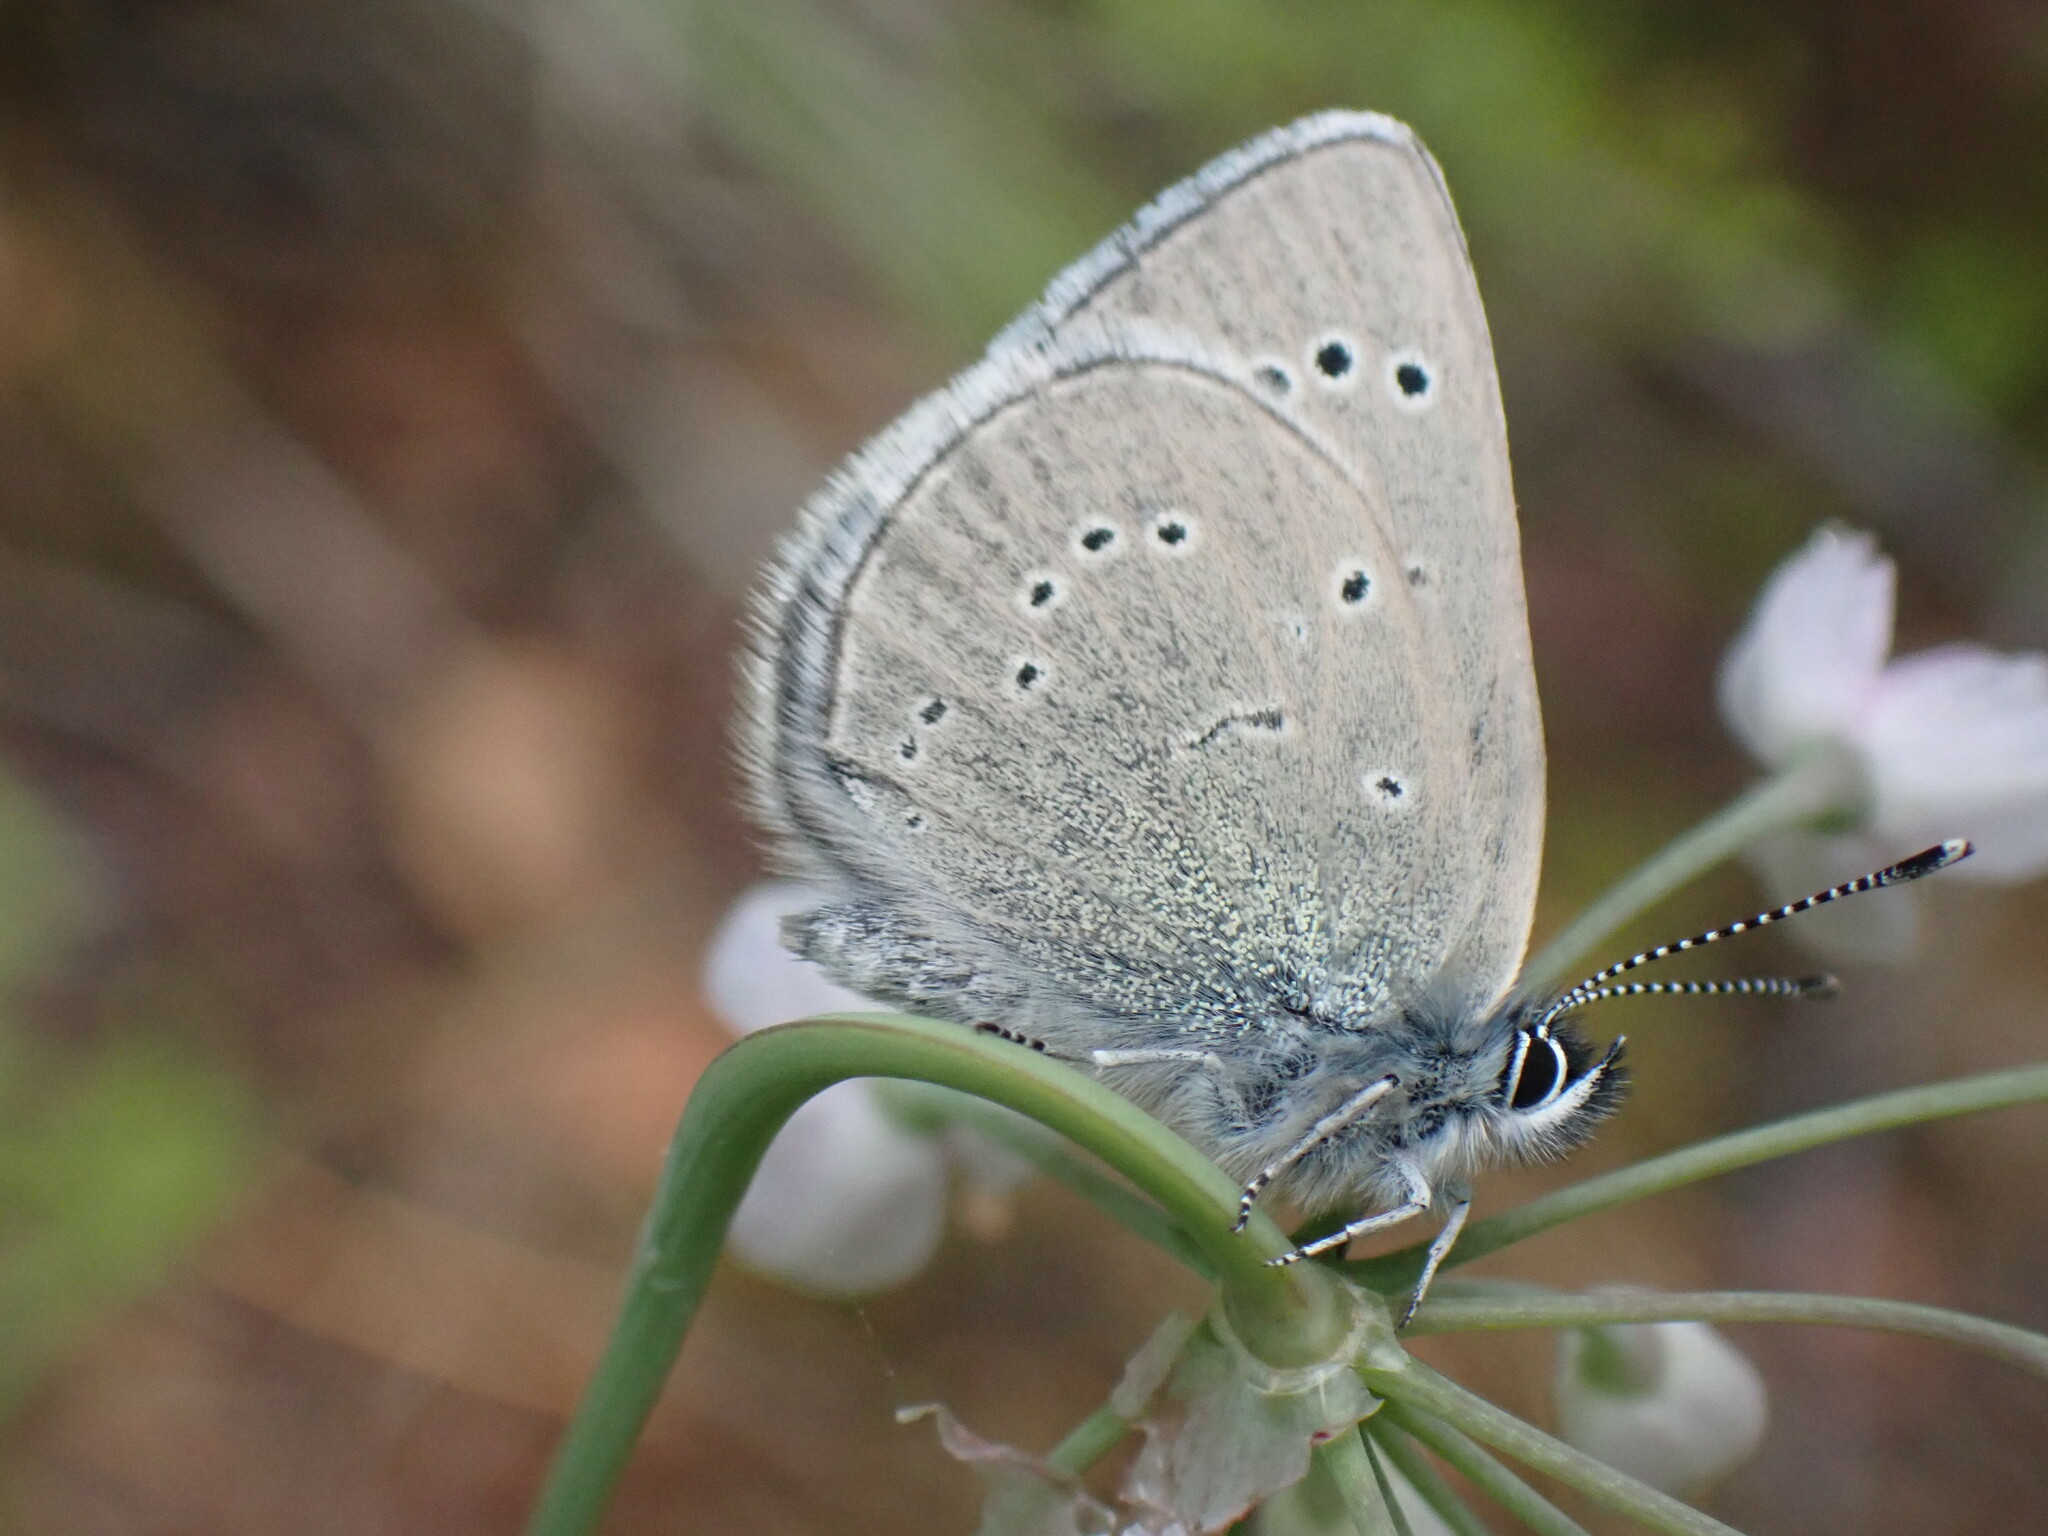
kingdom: Animalia
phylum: Arthropoda
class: Insecta
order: Lepidoptera
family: Lycaenidae
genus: Glaucopsyche
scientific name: Glaucopsyche lygdamus
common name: Silvery blue
